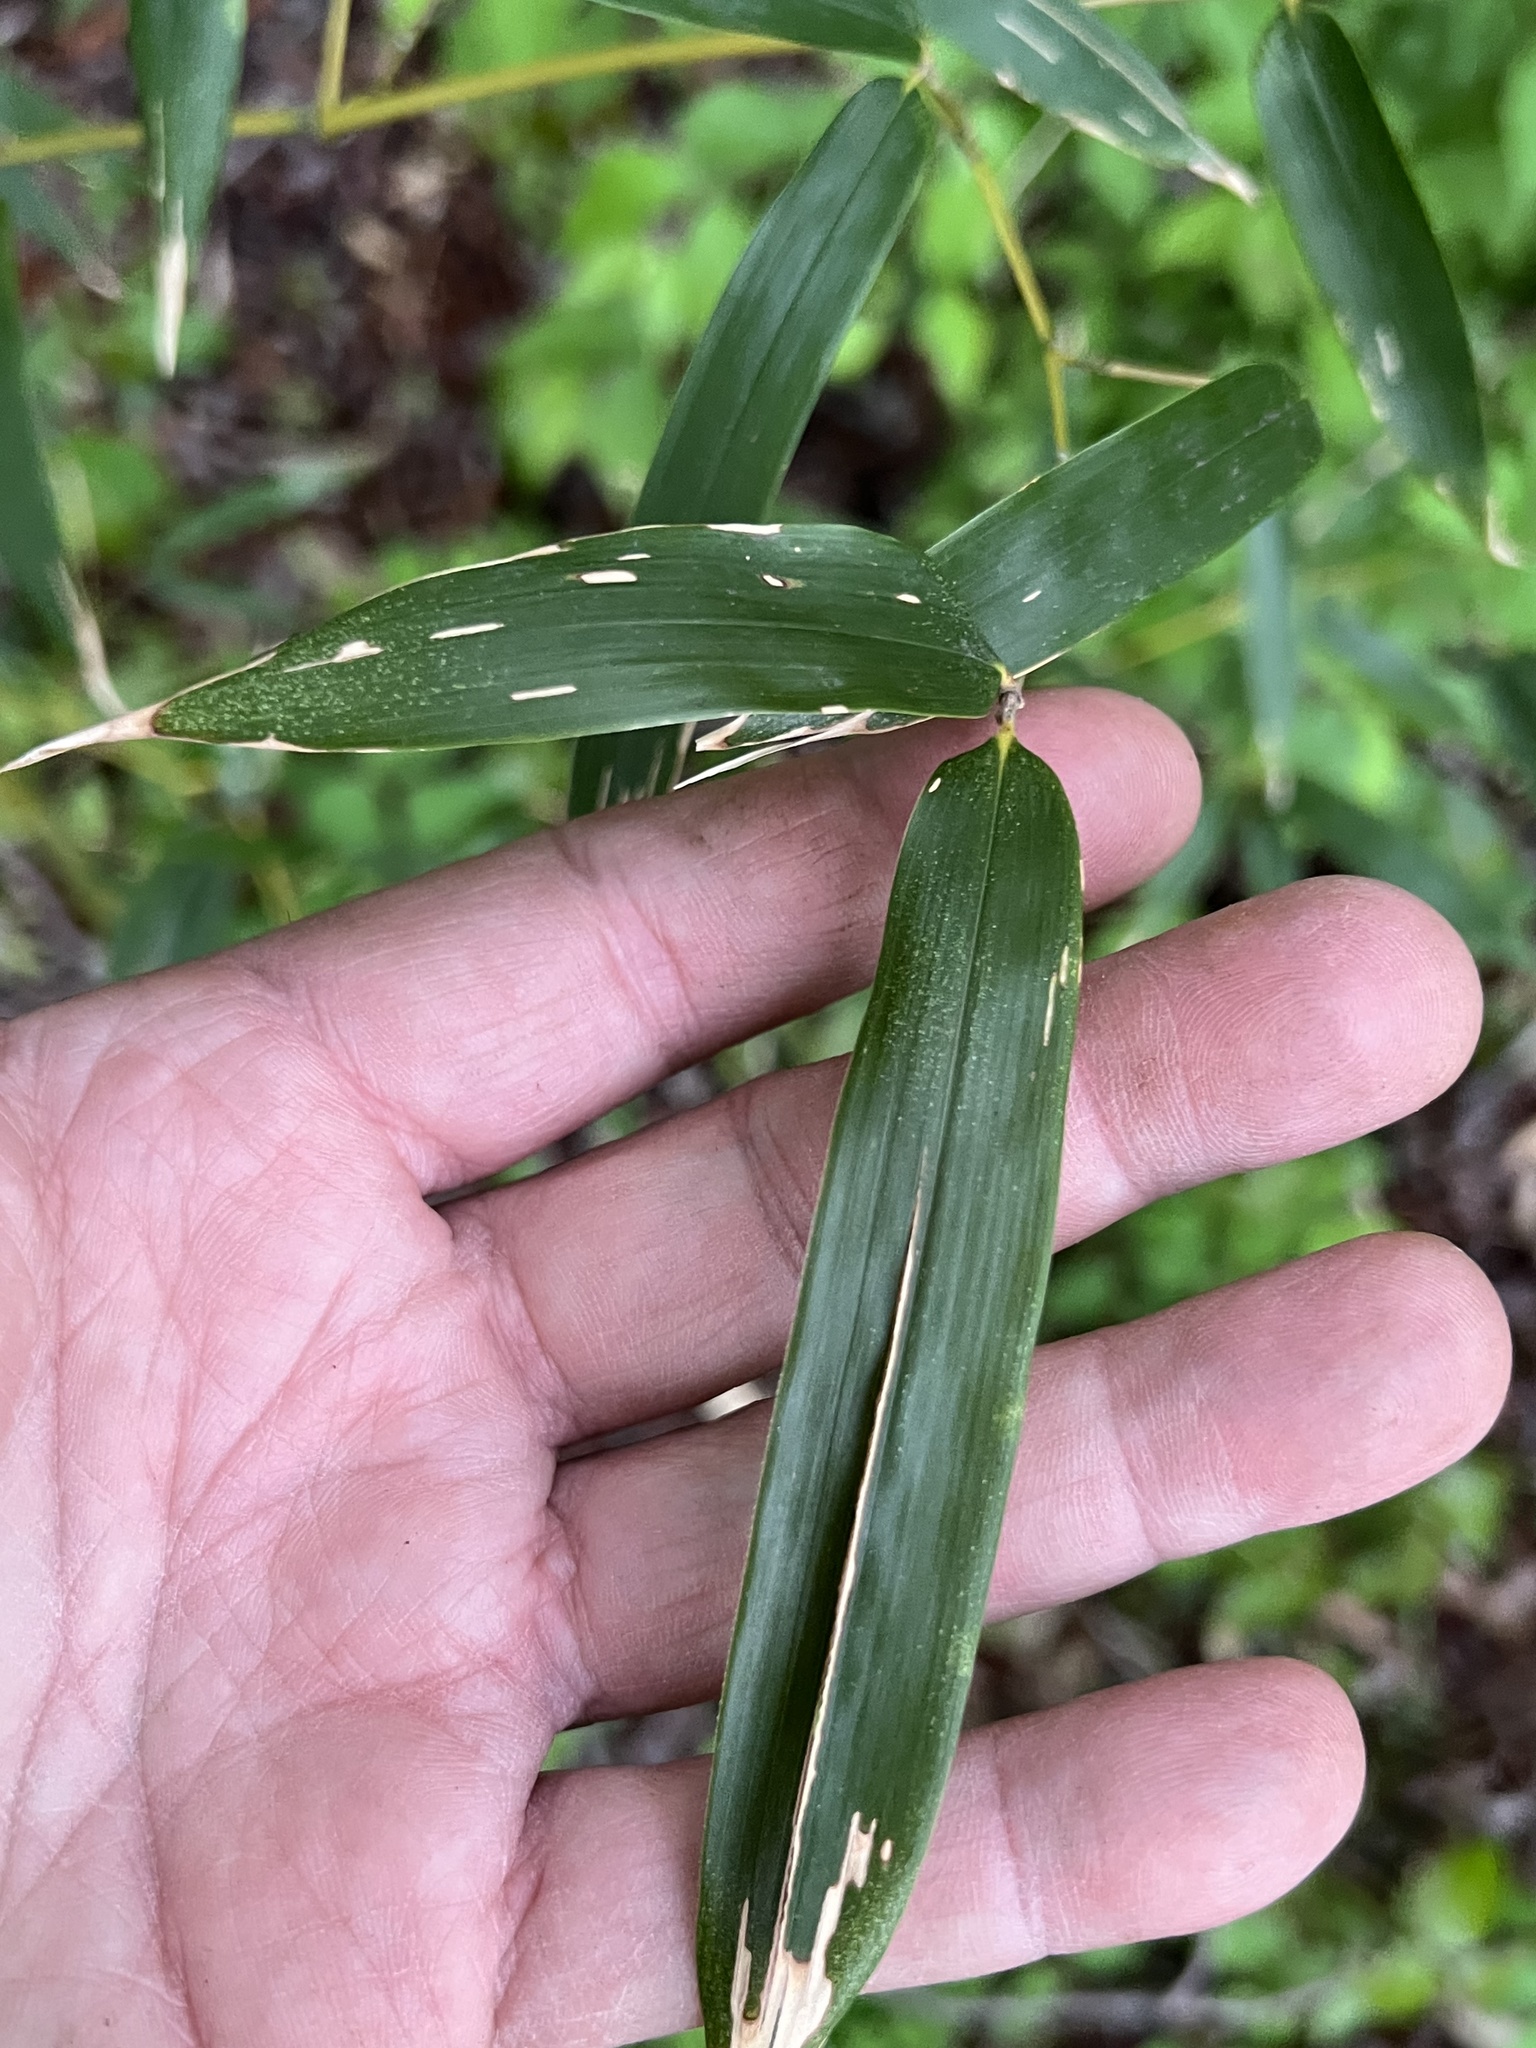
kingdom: Plantae
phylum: Tracheophyta
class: Liliopsida
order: Poales
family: Poaceae
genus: Phyllostachys
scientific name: Phyllostachys aurea
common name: Golden bamboo
